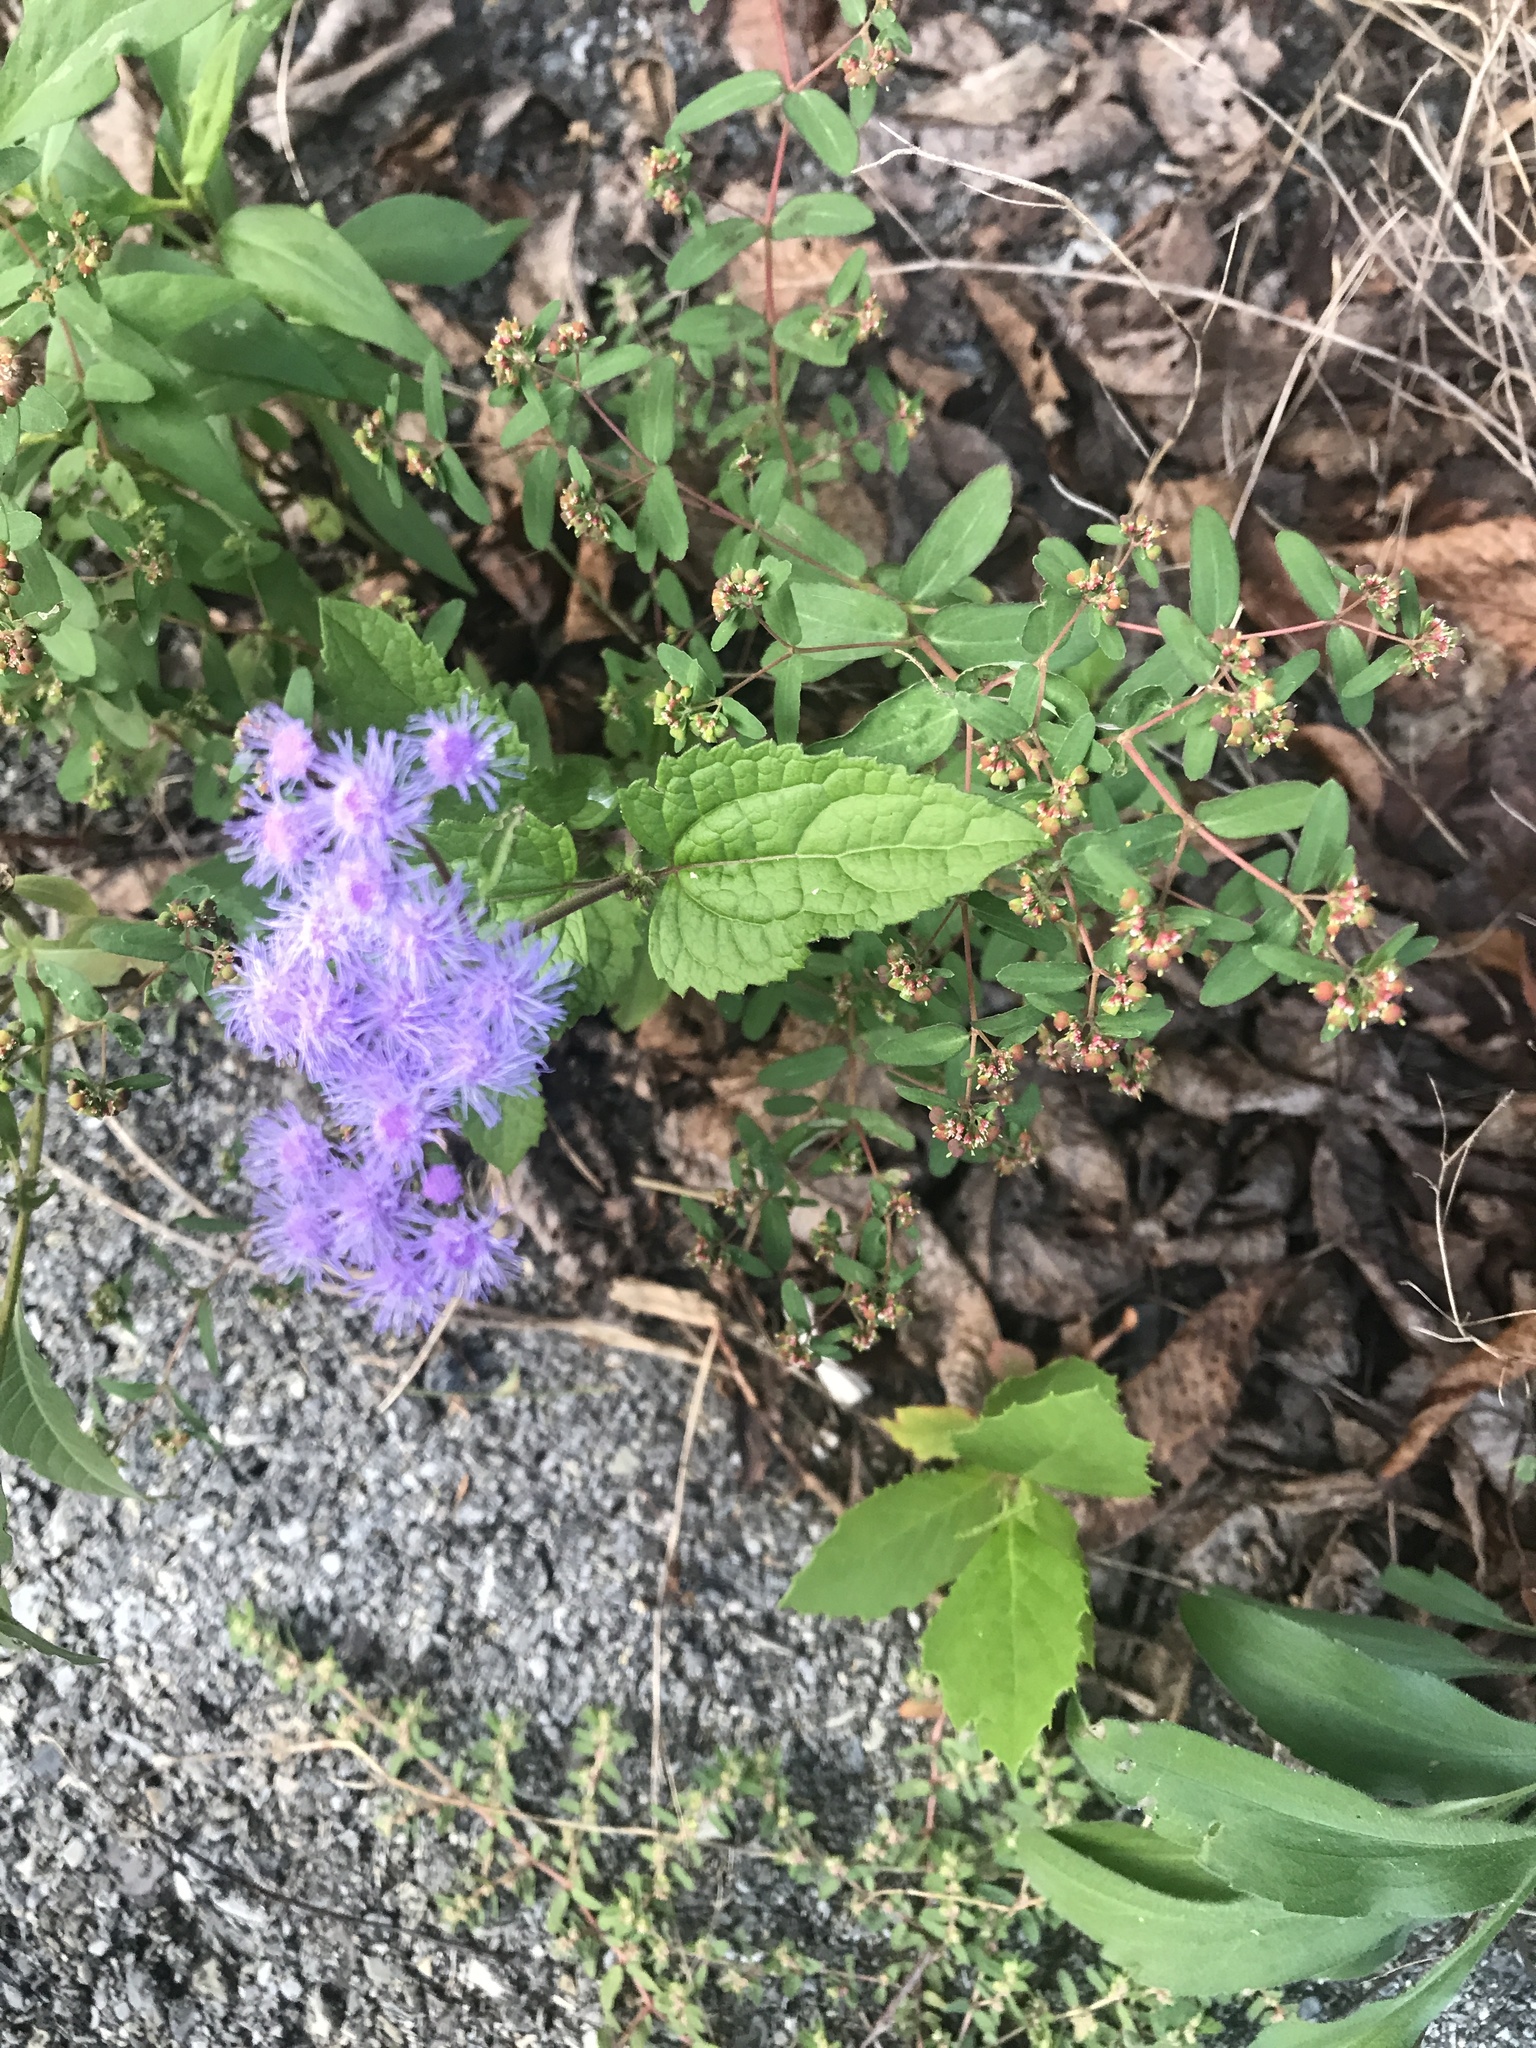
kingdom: Plantae
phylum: Tracheophyta
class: Magnoliopsida
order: Asterales
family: Asteraceae
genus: Conoclinium
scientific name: Conoclinium coelestinum
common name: Blue mistflower
